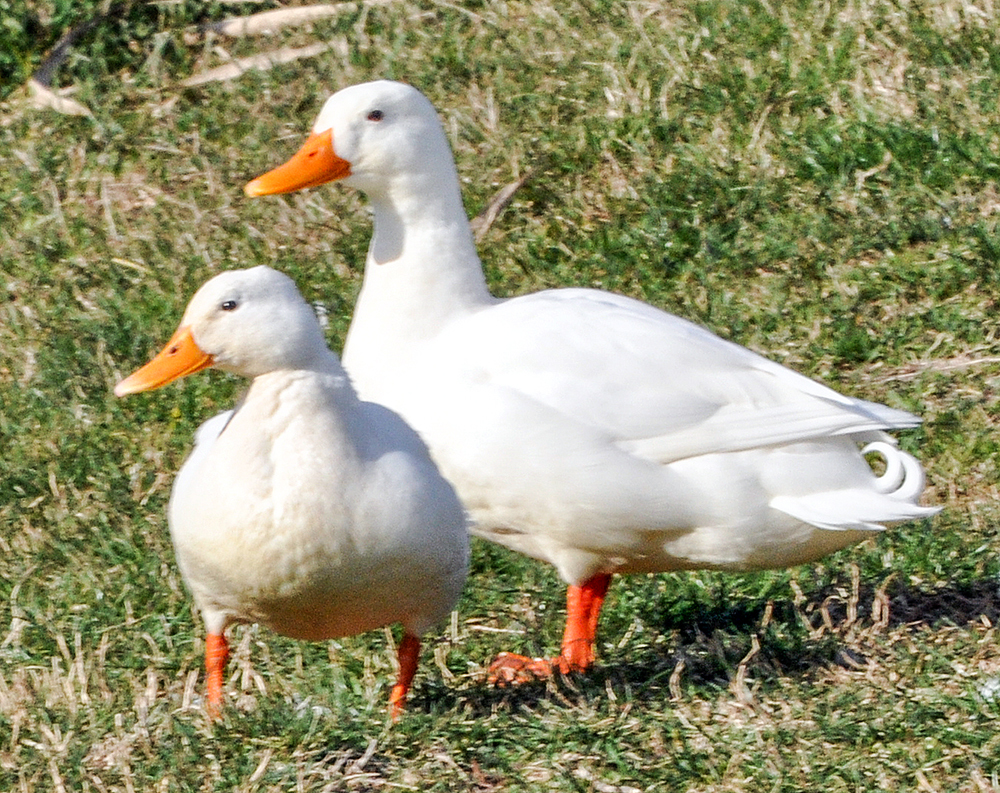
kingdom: Animalia
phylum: Chordata
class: Aves
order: Anseriformes
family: Anatidae
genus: Anas
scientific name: Anas platyrhynchos
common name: Mallard
